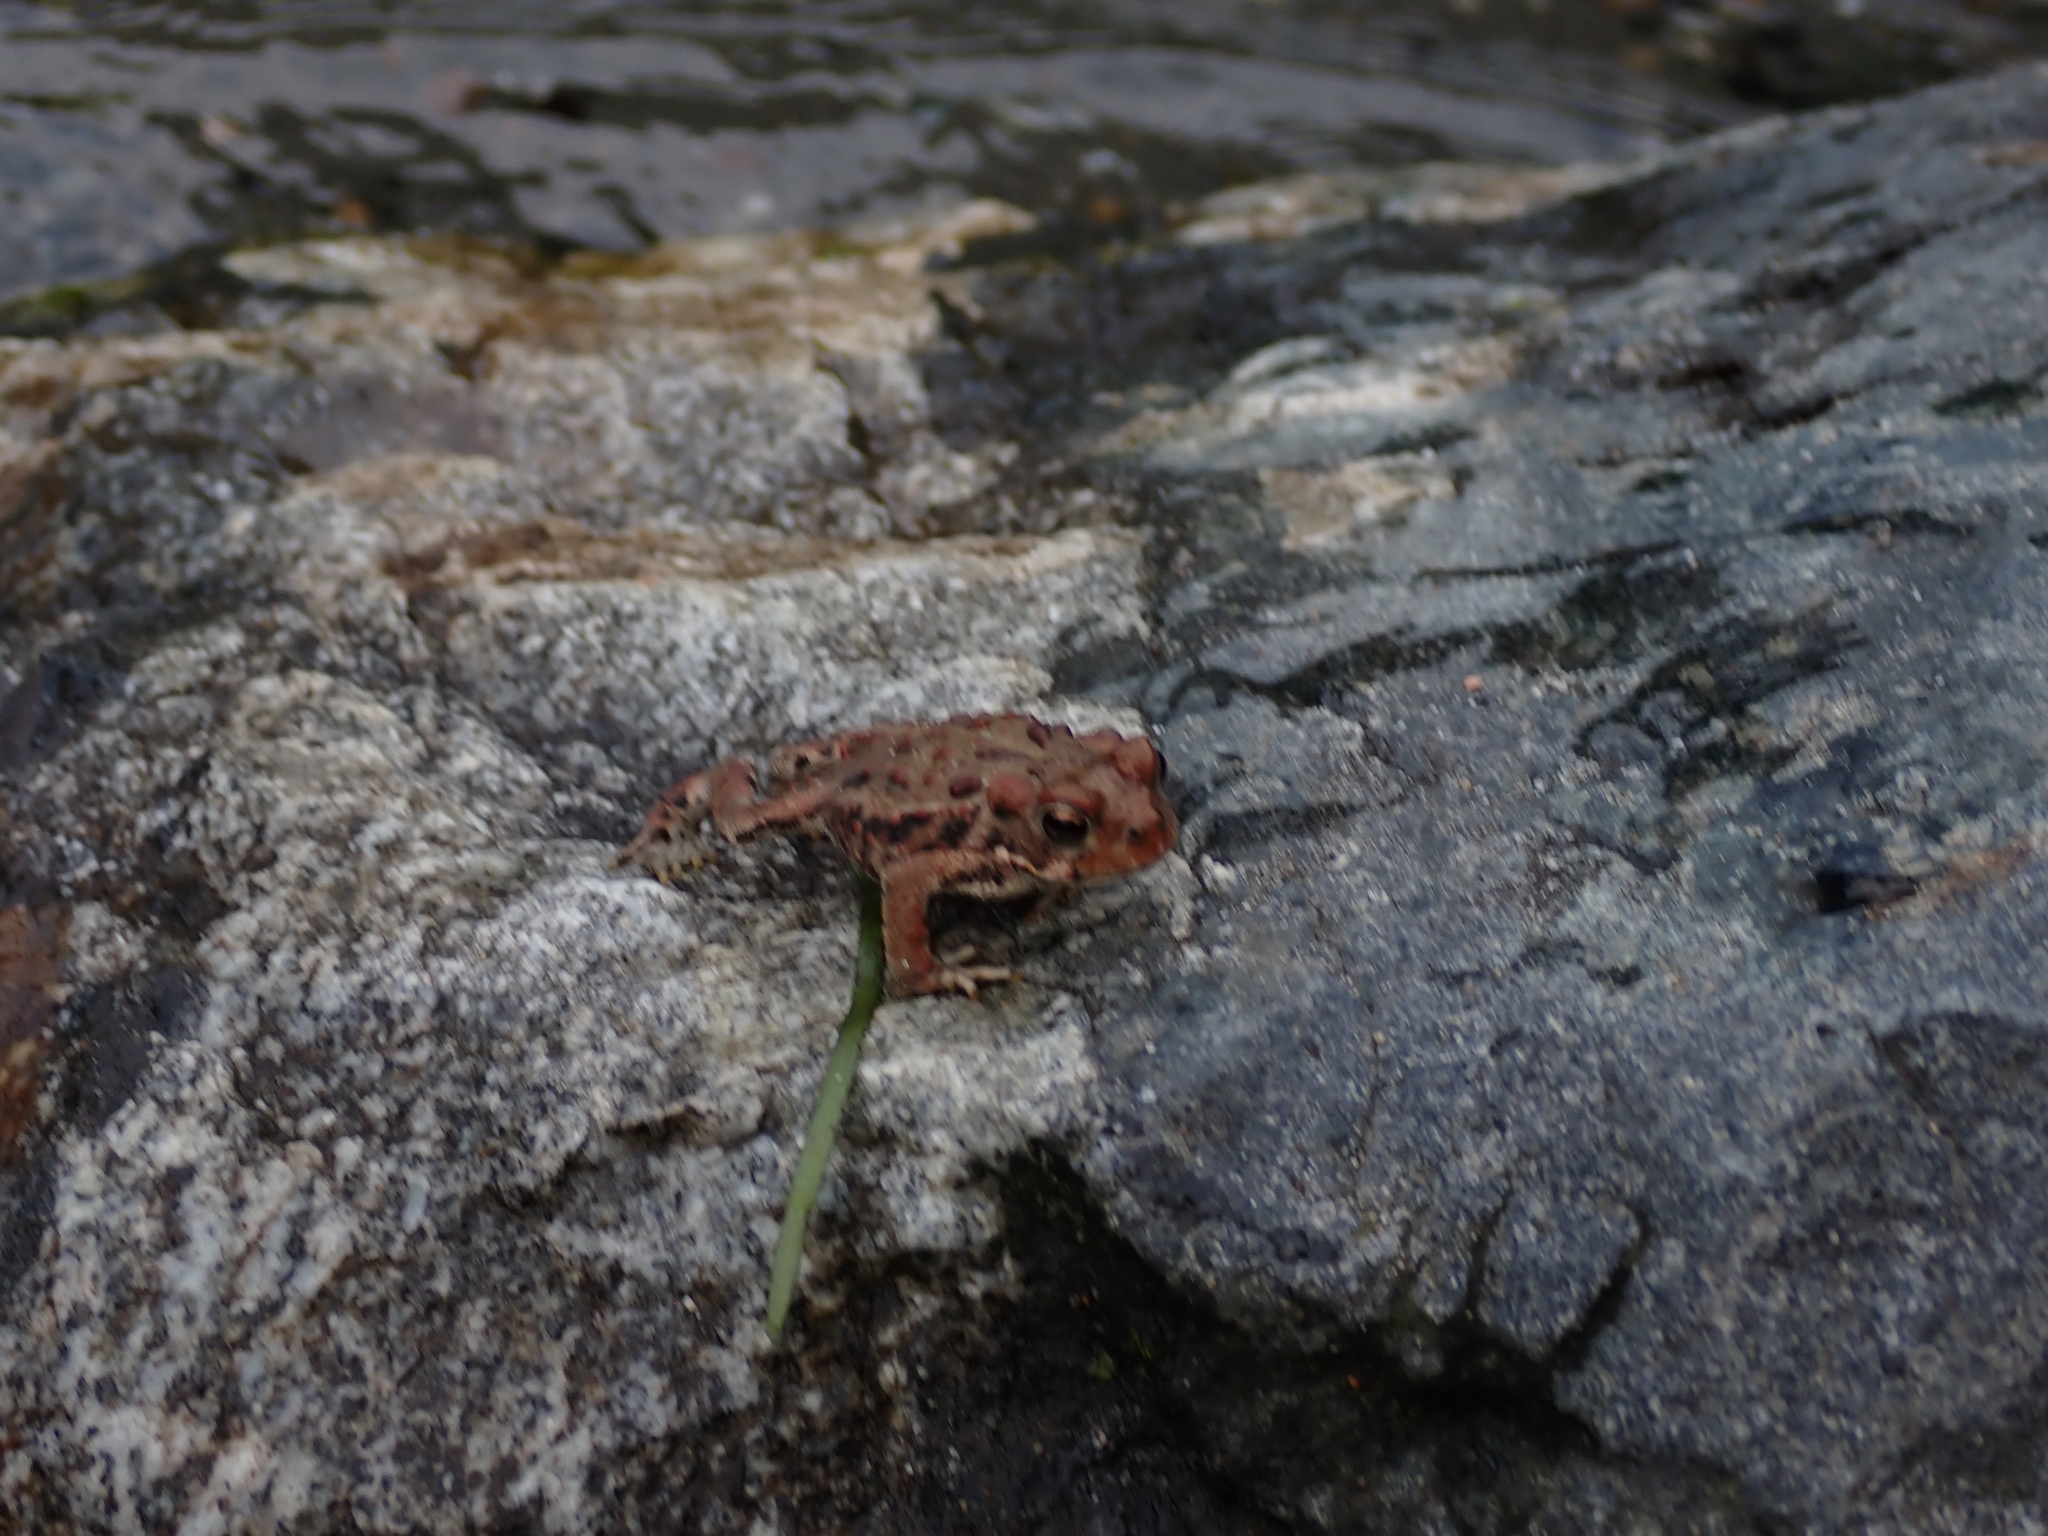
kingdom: Animalia
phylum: Chordata
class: Amphibia
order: Anura
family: Bufonidae
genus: Anaxyrus
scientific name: Anaxyrus boreas
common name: Western toad
